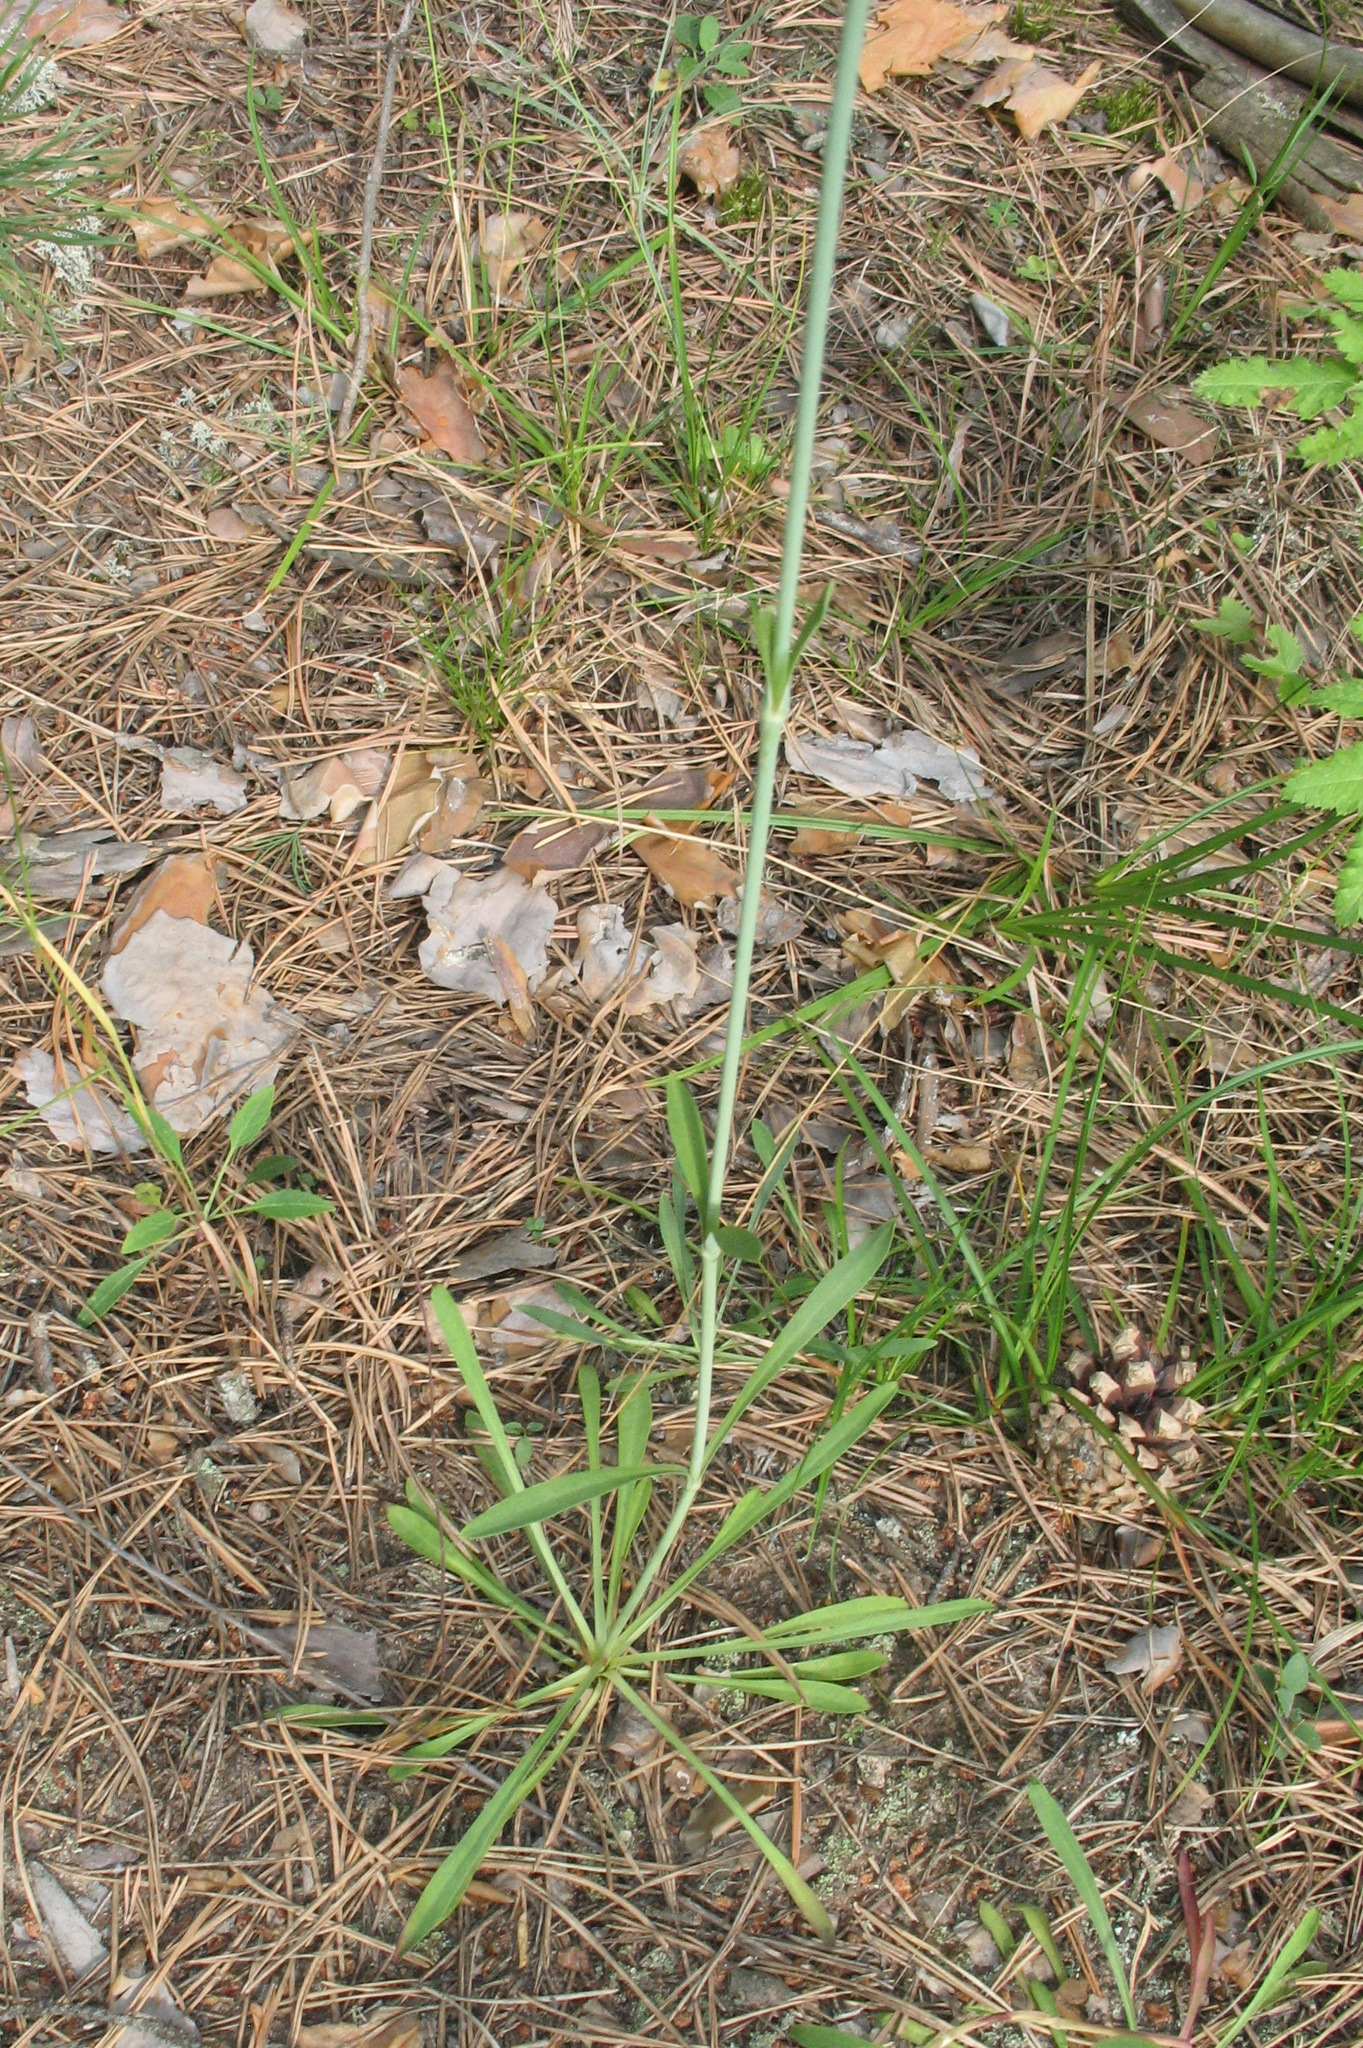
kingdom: Plantae
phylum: Tracheophyta
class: Magnoliopsida
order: Caryophyllales
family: Caryophyllaceae
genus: Silene
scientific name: Silene chlorantha
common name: Yellowgreen catchfly
